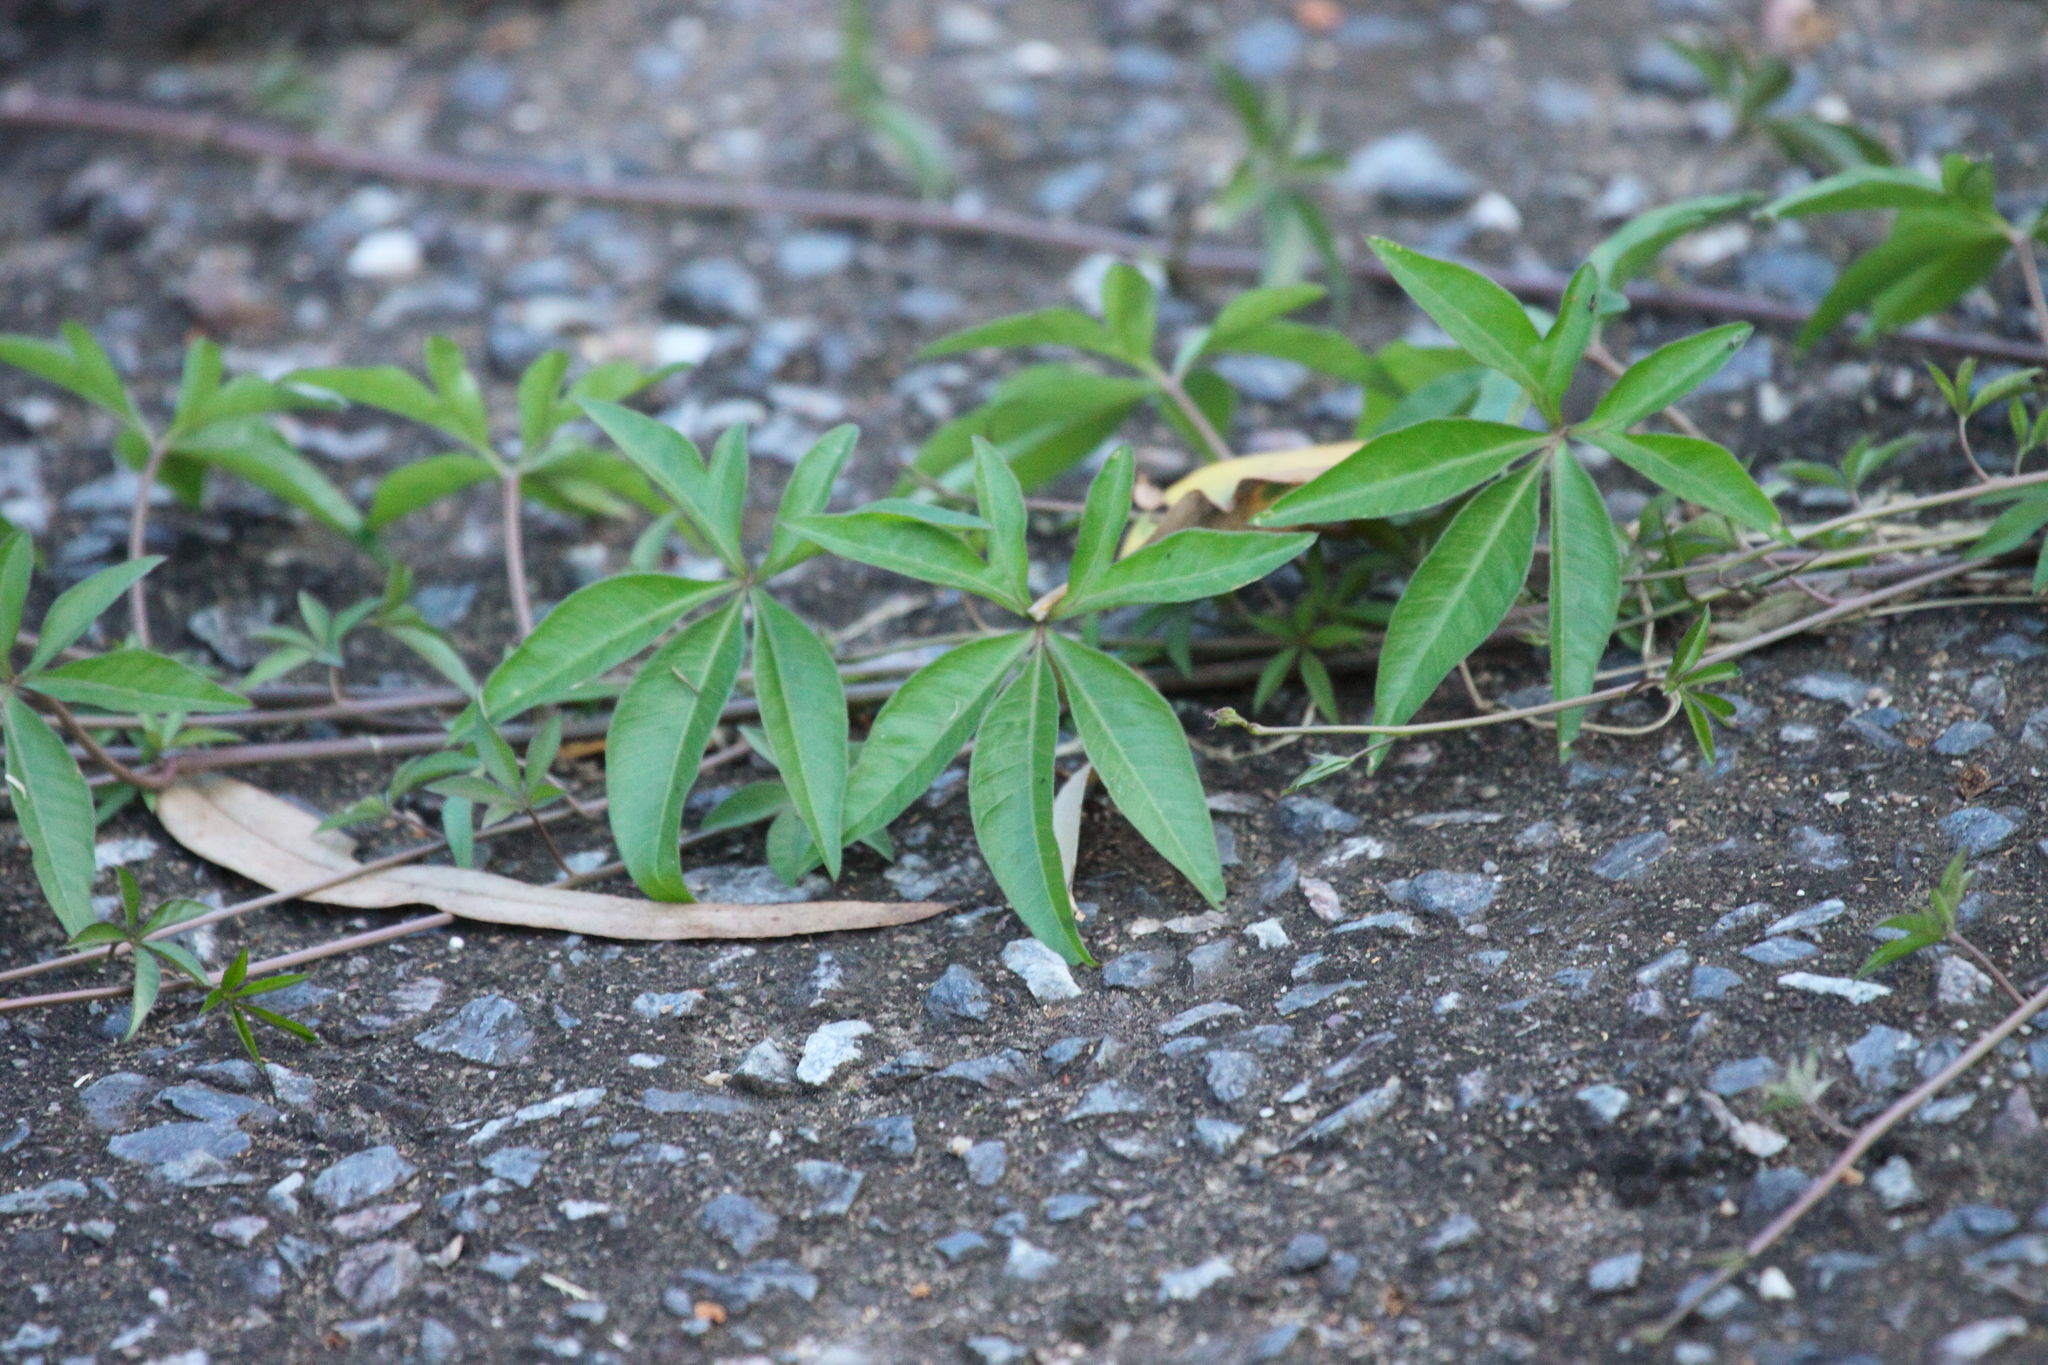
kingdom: Plantae
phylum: Tracheophyta
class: Magnoliopsida
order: Solanales
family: Convolvulaceae
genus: Ipomoea
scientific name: Ipomoea cairica
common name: Mile a minute vine
